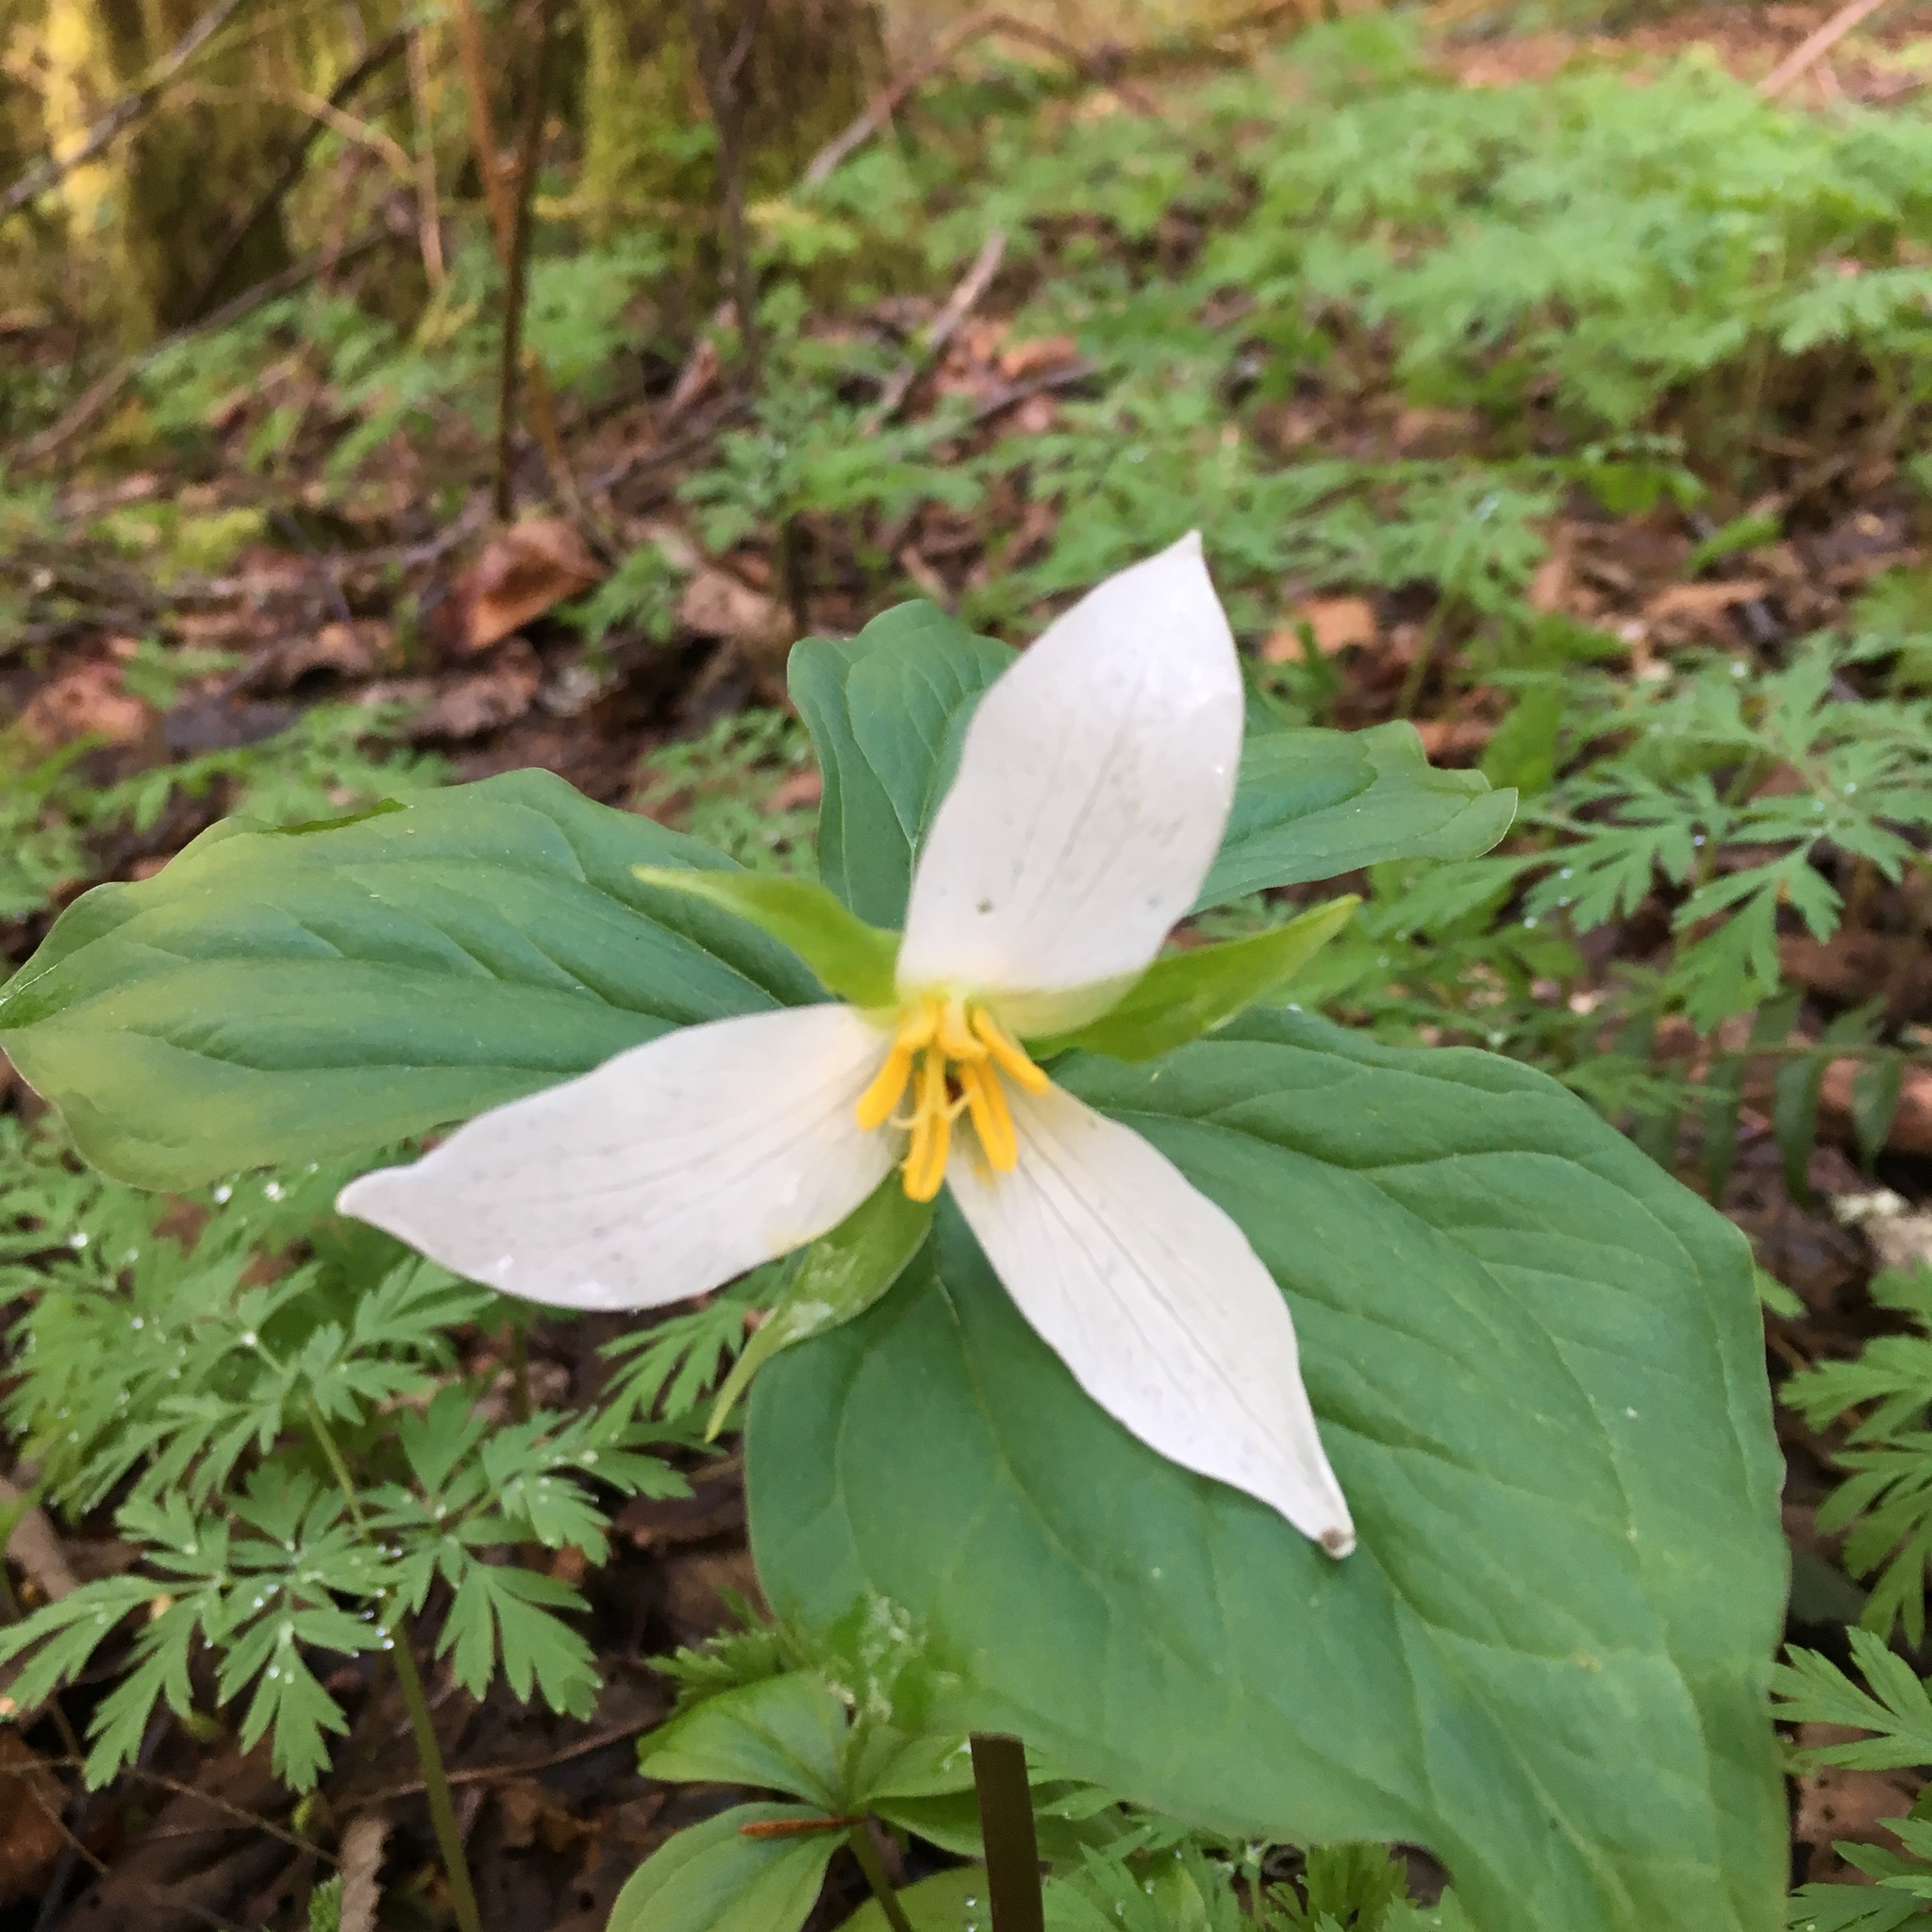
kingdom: Plantae
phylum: Tracheophyta
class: Liliopsida
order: Liliales
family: Melanthiaceae
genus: Trillium
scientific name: Trillium ovatum
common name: Pacific trillium
